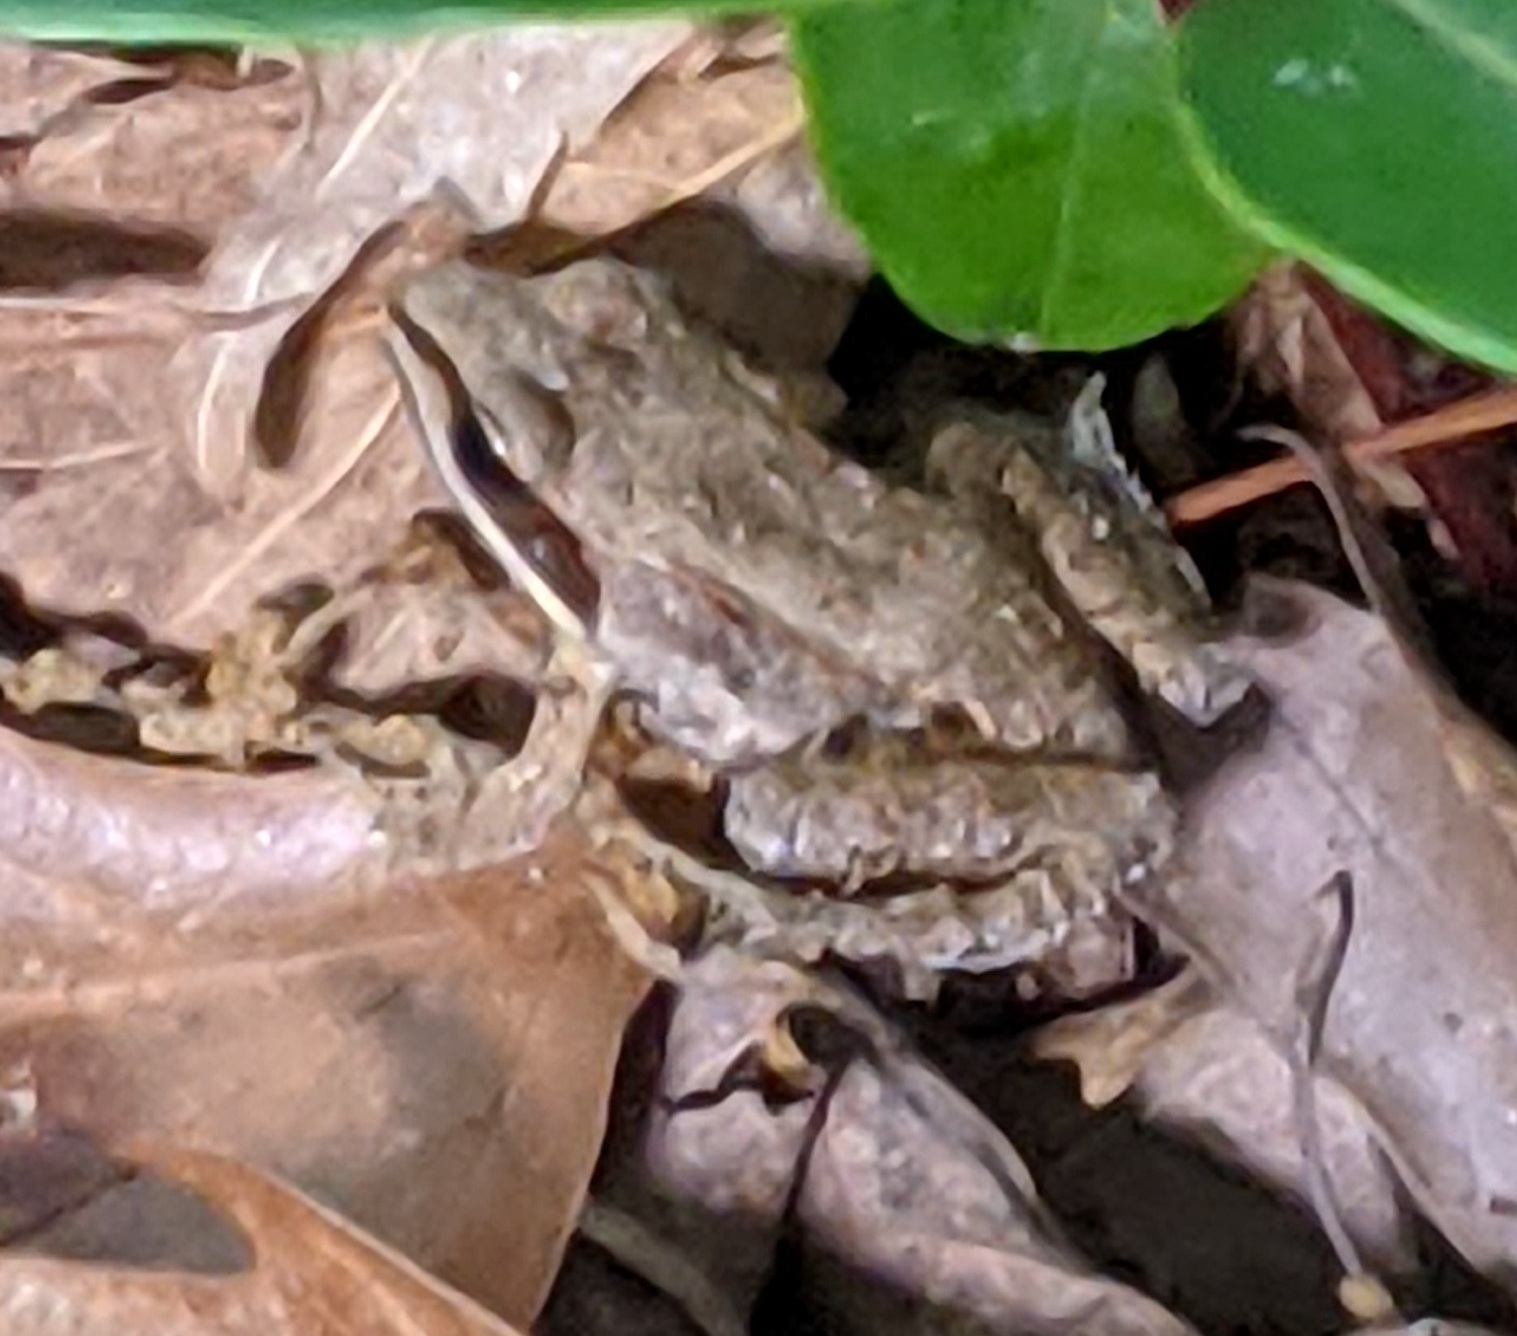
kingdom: Animalia
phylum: Chordata
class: Amphibia
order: Anura
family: Ranidae
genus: Lithobates
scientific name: Lithobates sylvaticus
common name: Wood frog
